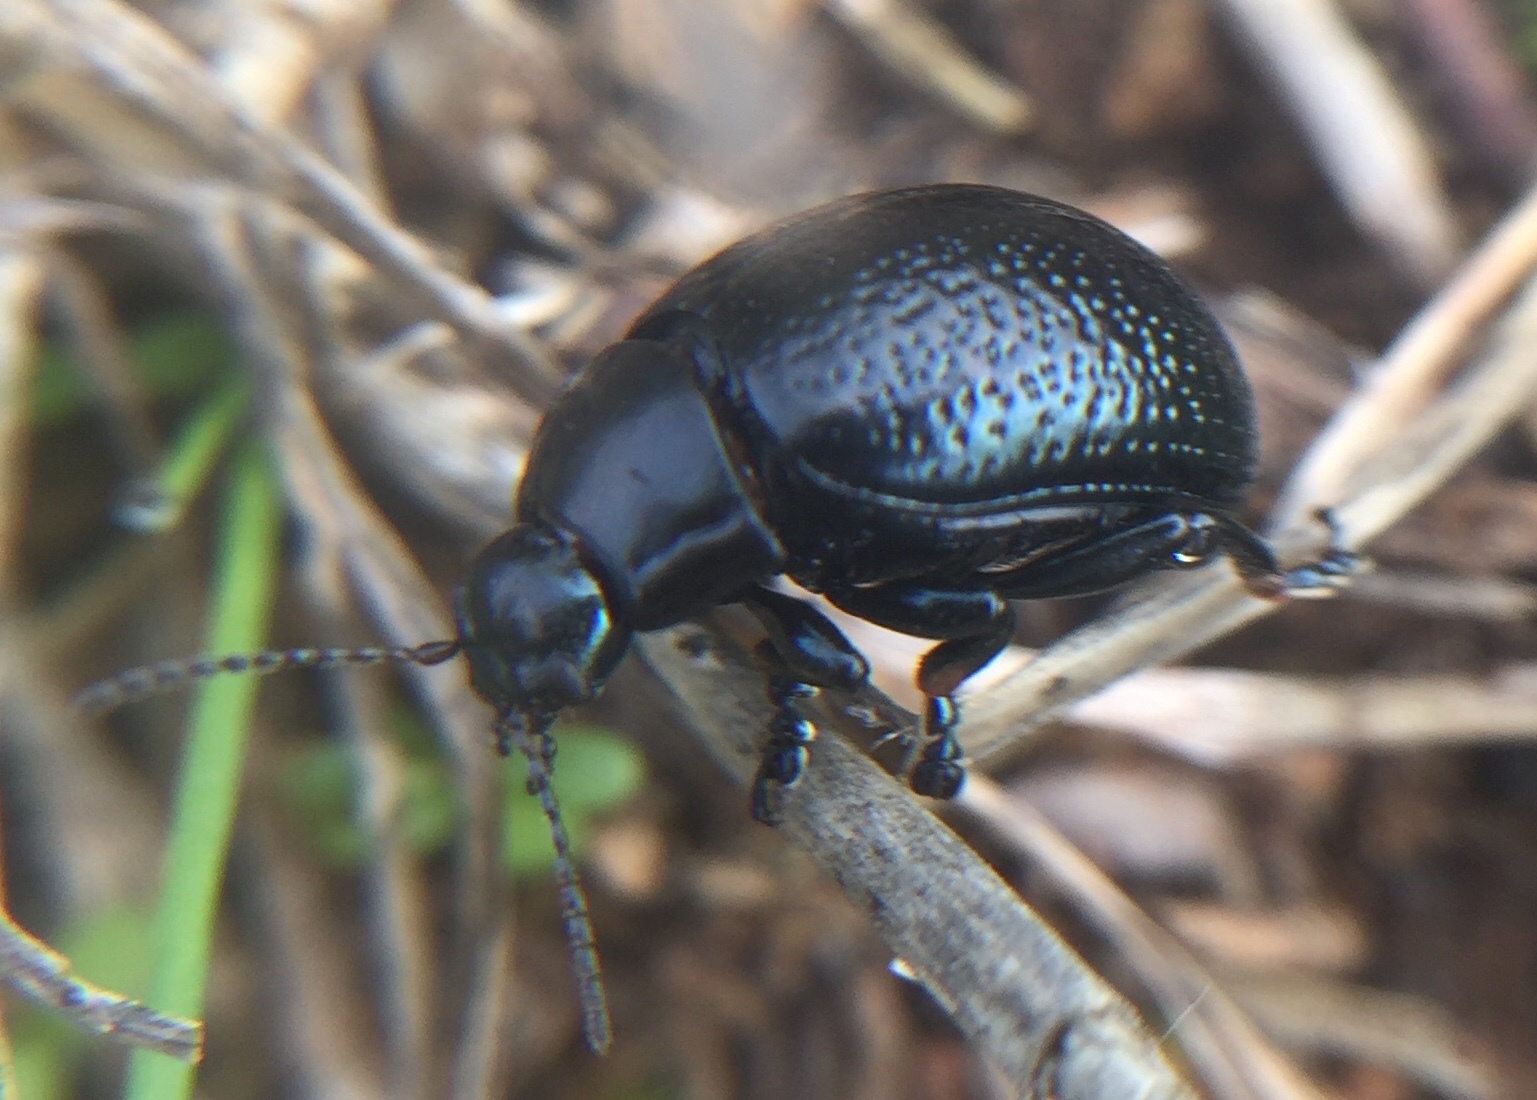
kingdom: Animalia
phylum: Arthropoda
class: Insecta
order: Coleoptera
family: Chrysomelidae
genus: Chrysolina
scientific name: Chrysolina vernalis
